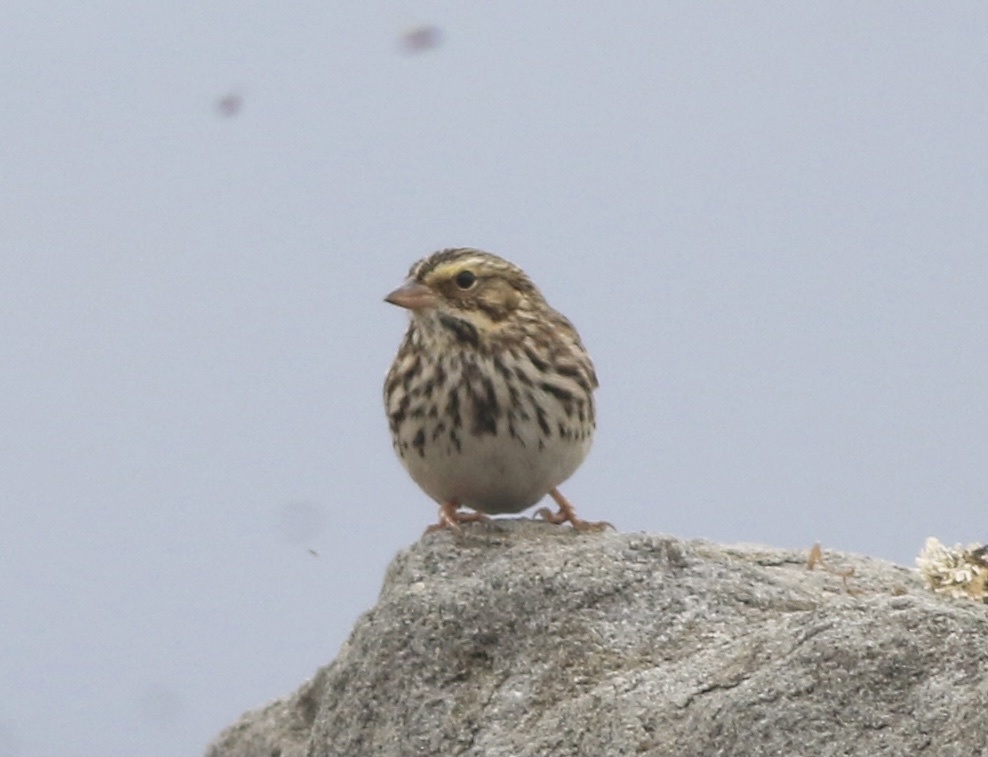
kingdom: Animalia
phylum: Chordata
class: Aves
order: Passeriformes
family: Passerellidae
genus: Passerculus
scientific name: Passerculus sandwichensis
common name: Savannah sparrow
